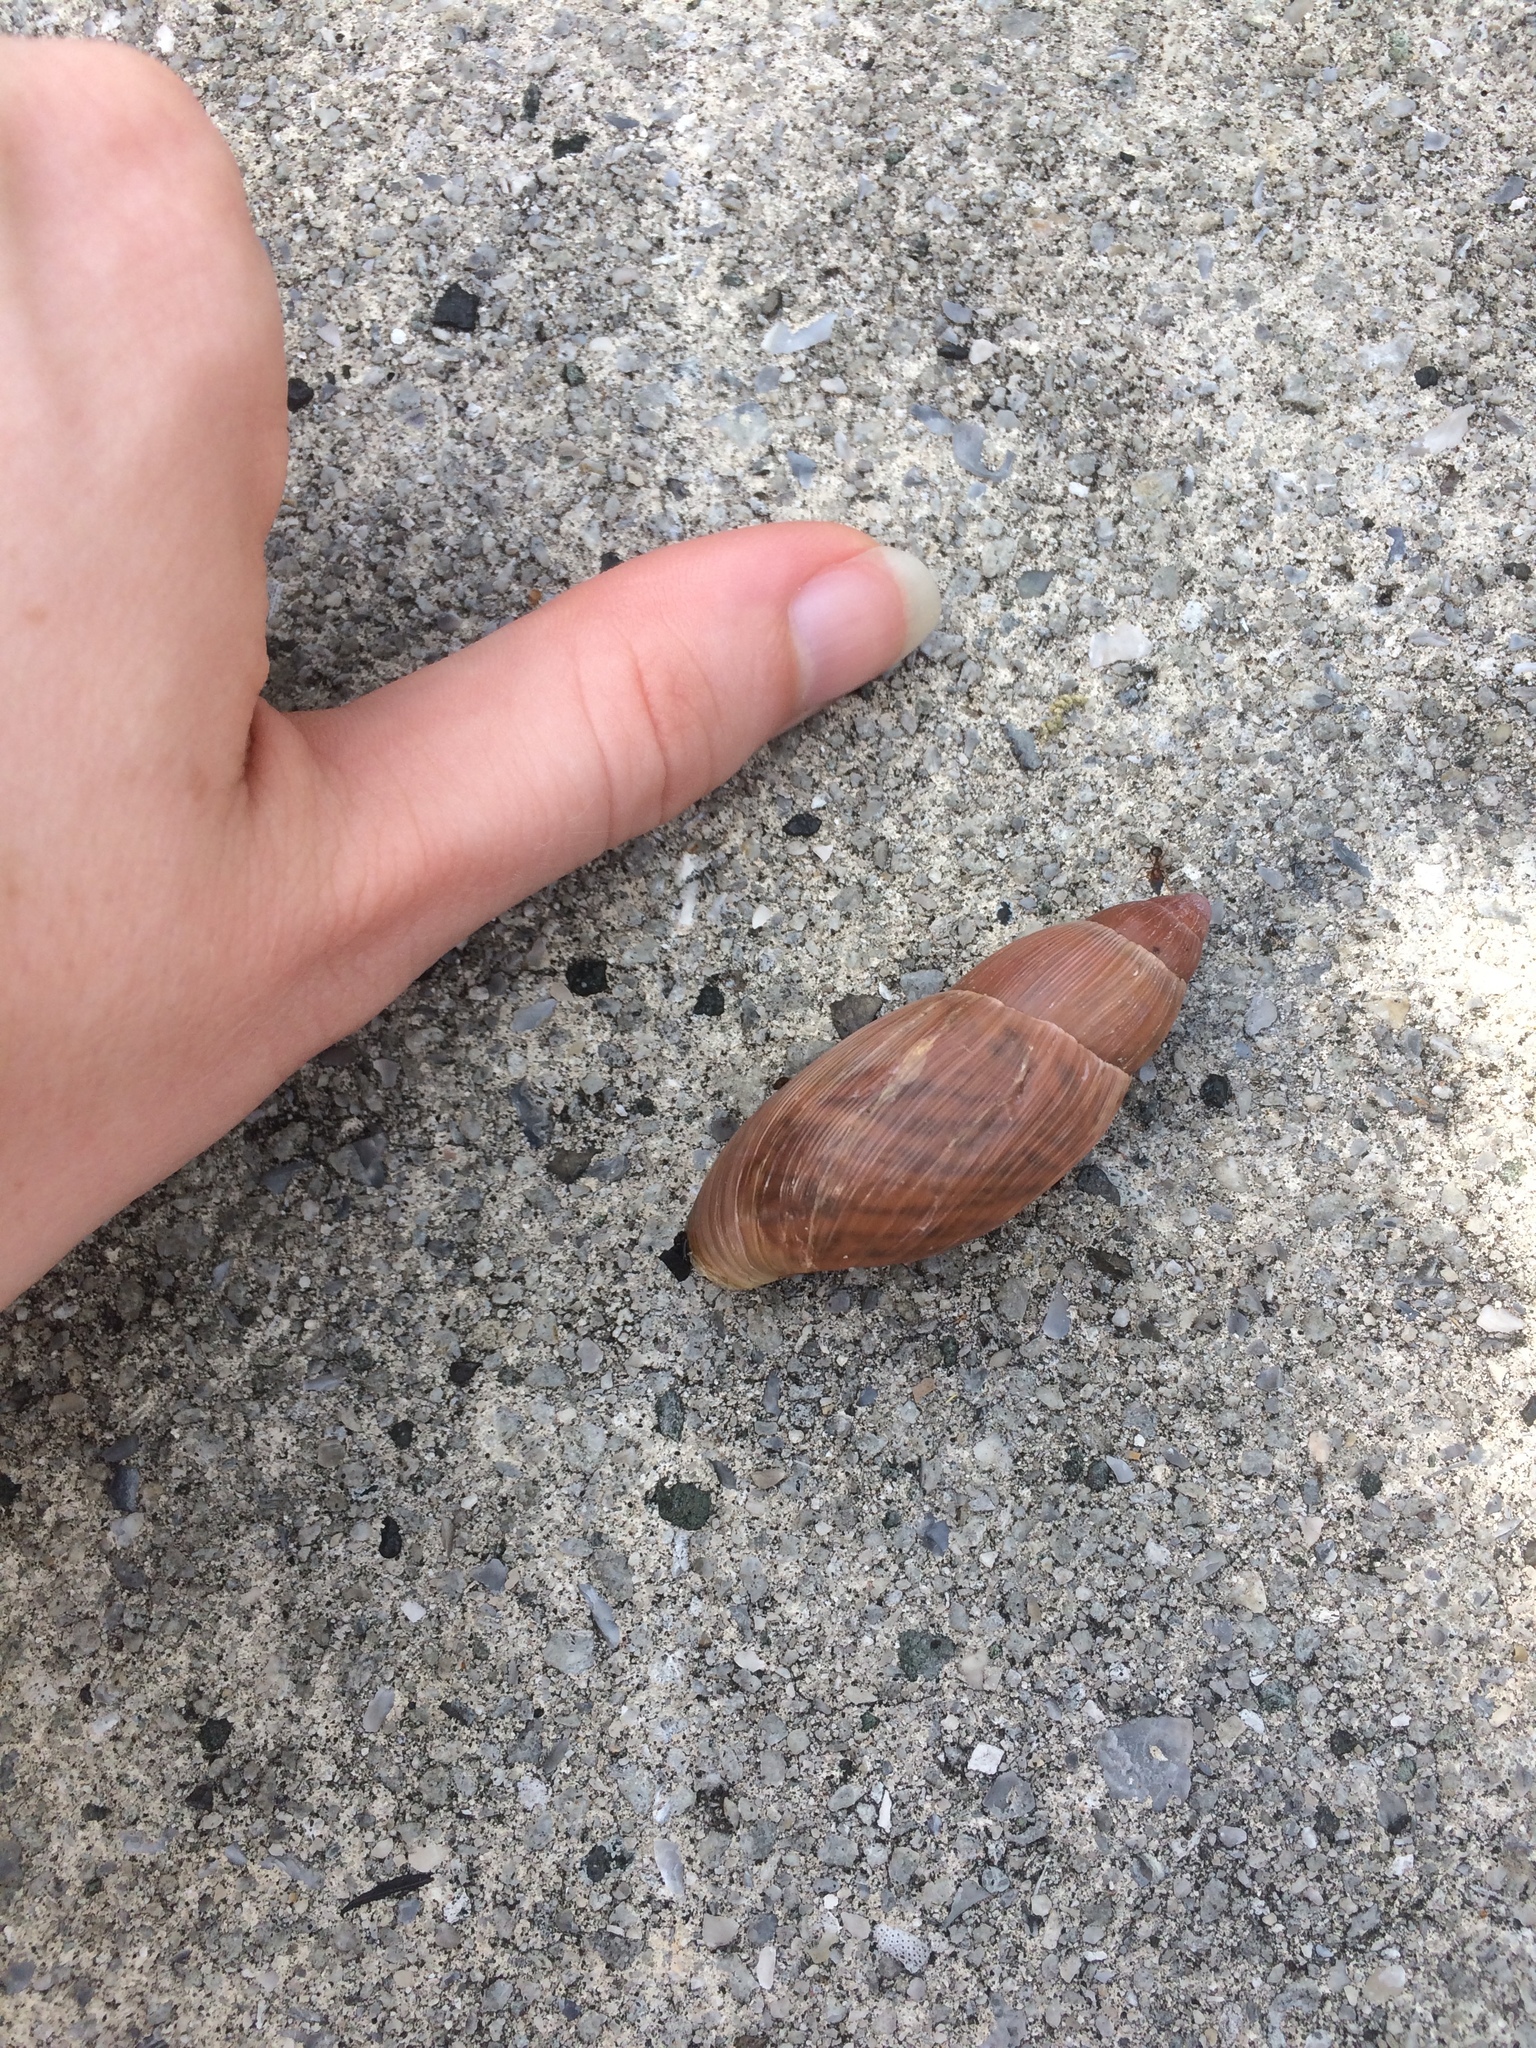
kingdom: Animalia
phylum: Mollusca
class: Gastropoda
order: Stylommatophora
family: Spiraxidae
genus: Euglandina
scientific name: Euglandina rosea
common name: Rosy wolfsnail
